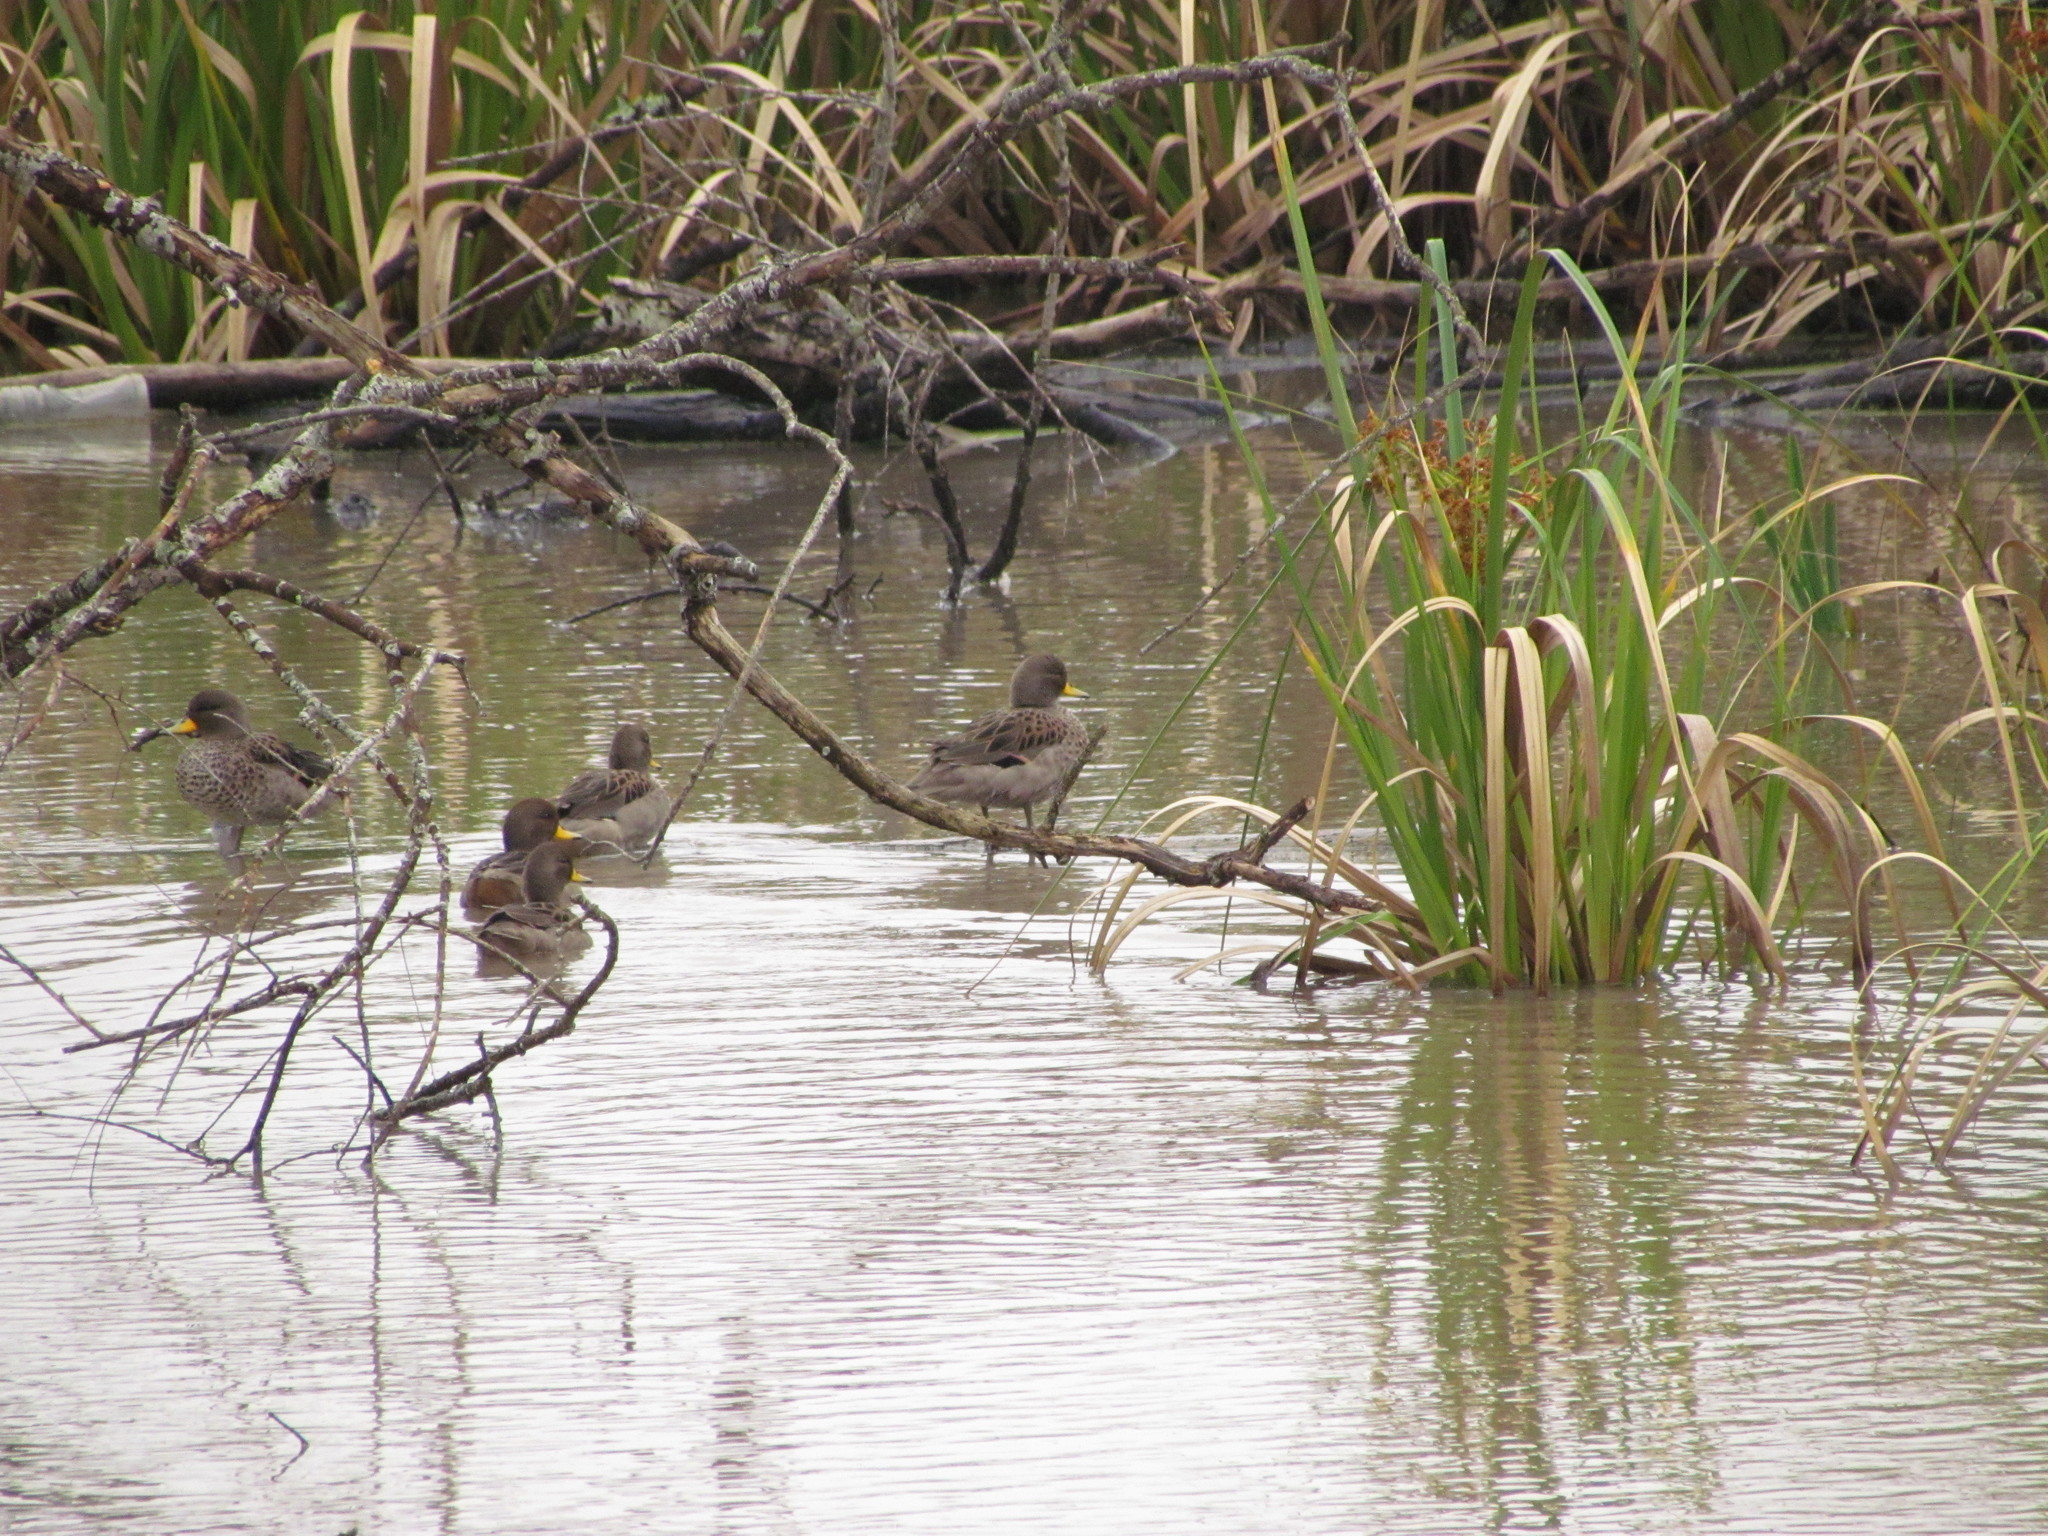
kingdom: Animalia
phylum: Chordata
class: Aves
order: Anseriformes
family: Anatidae
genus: Anas
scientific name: Anas flavirostris
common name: Yellow-billed teal
